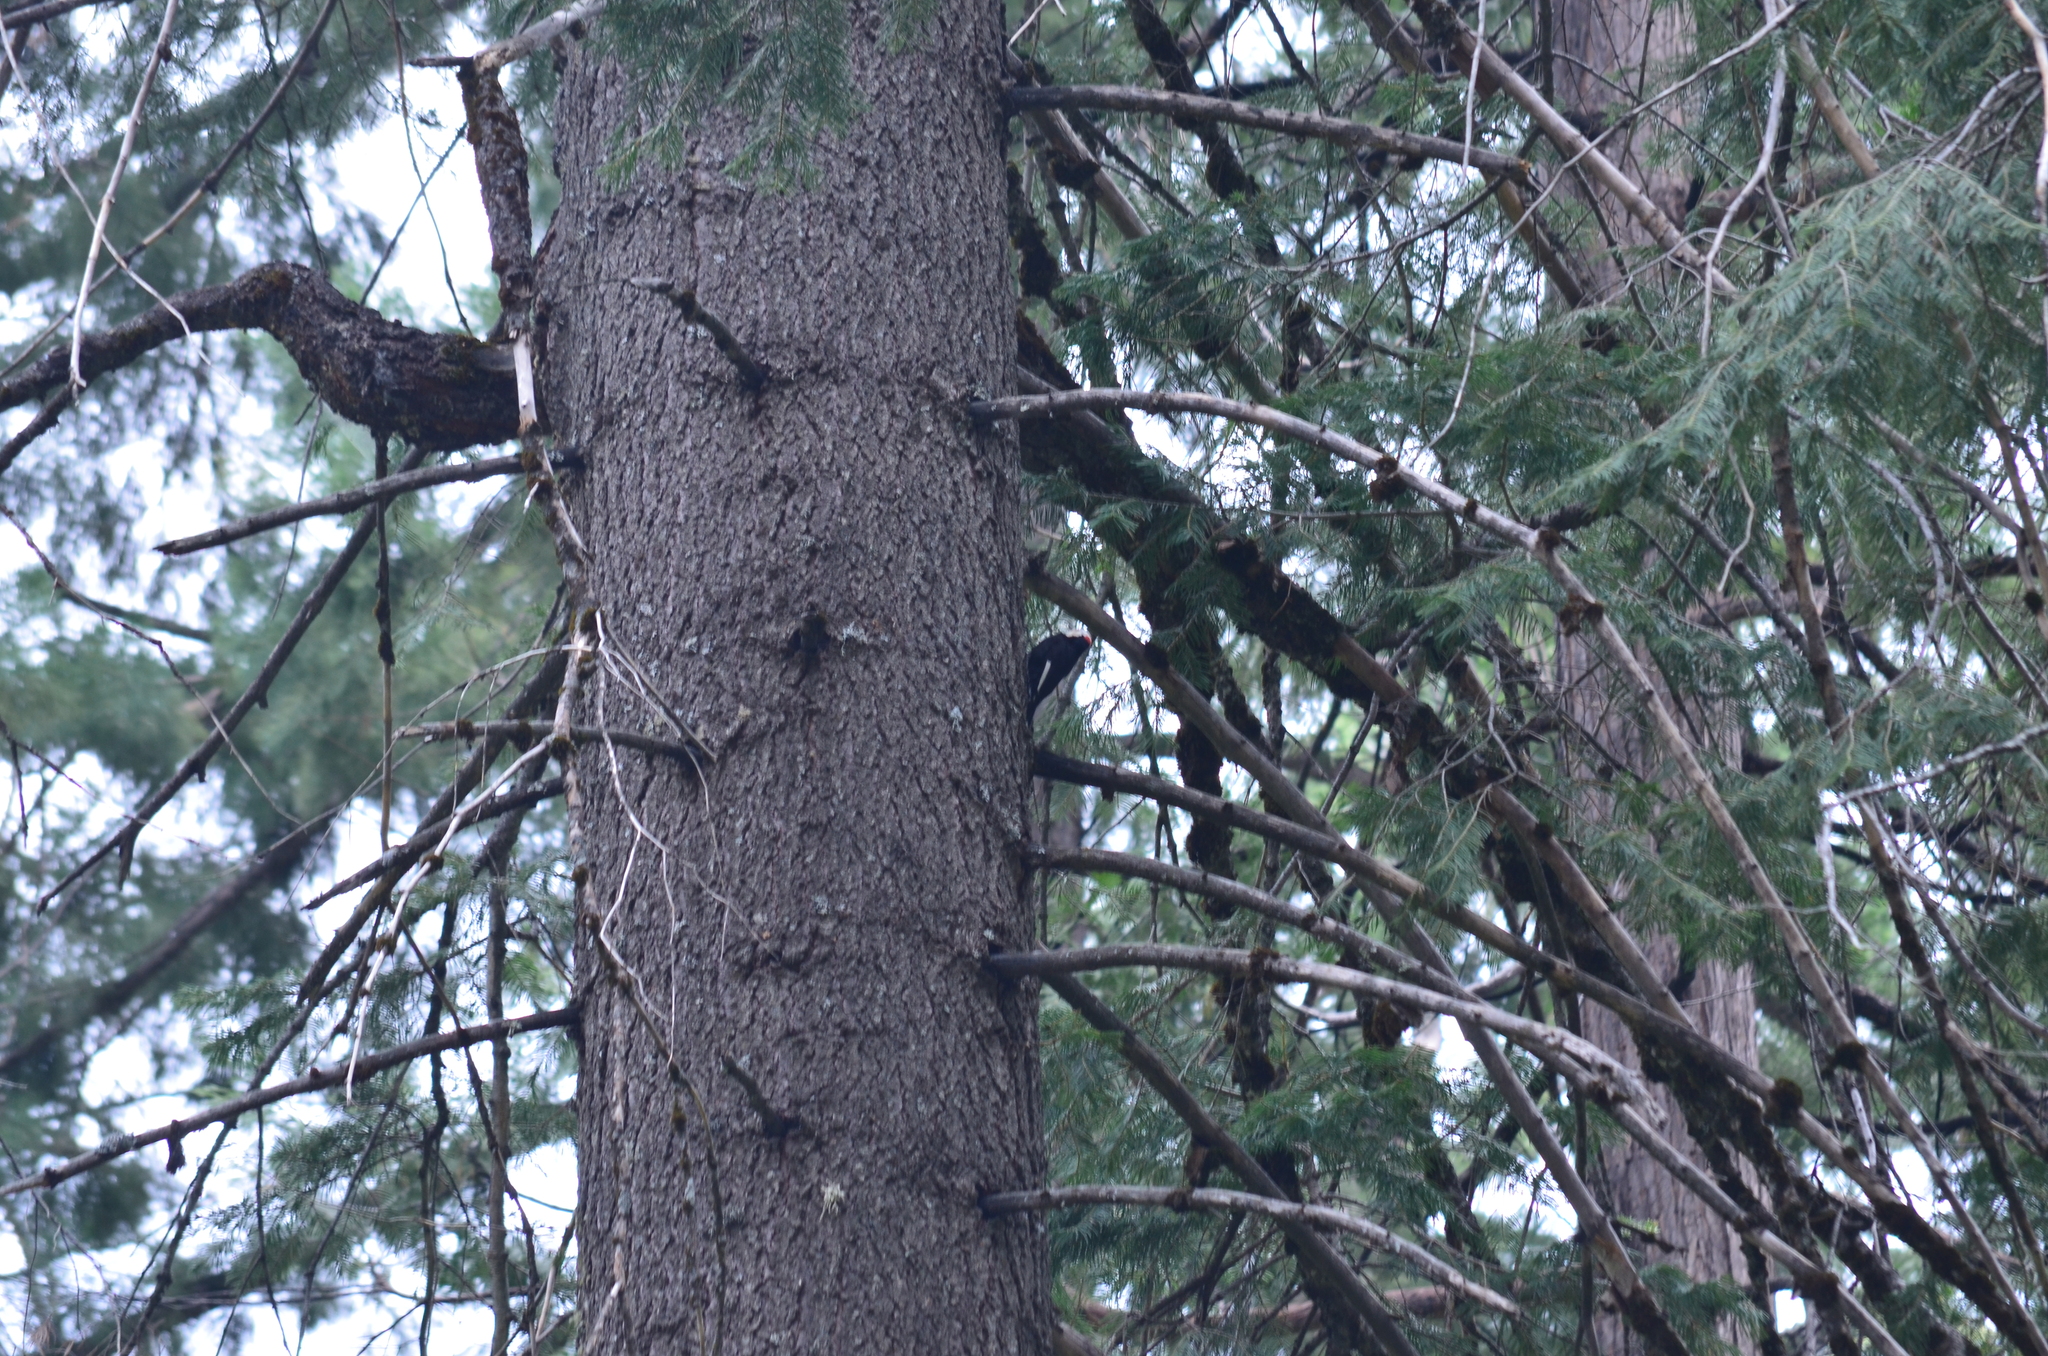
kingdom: Animalia
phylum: Chordata
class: Aves
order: Piciformes
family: Picidae
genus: Leuconotopicus
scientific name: Leuconotopicus albolarvatus
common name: White-headed woodpecker
